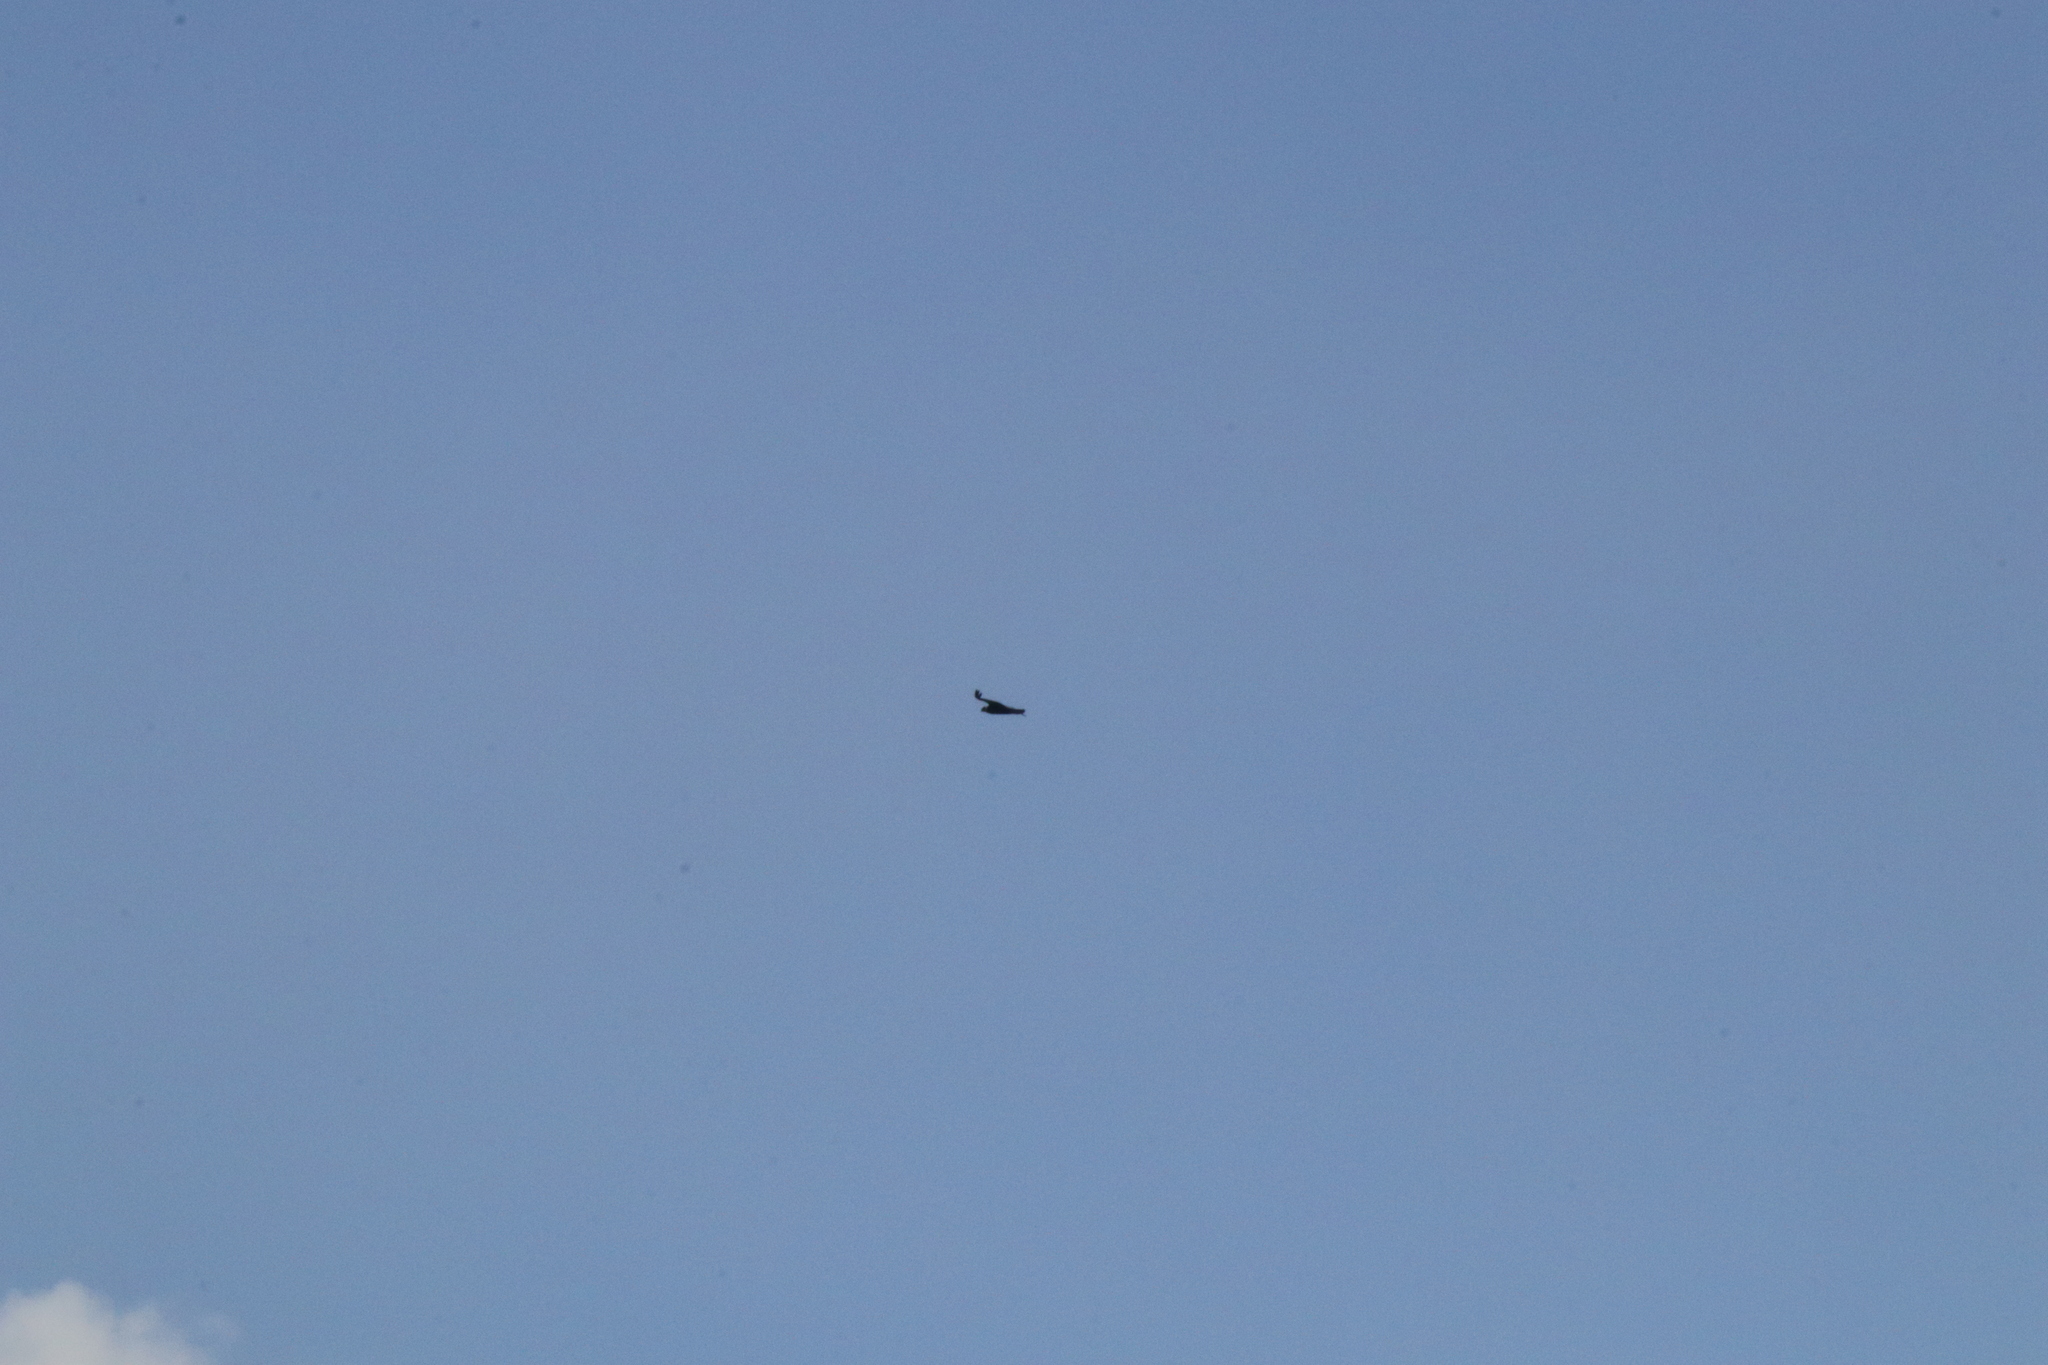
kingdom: Animalia
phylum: Chordata
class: Aves
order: Accipitriformes
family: Cathartidae
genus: Vultur
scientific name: Vultur gryphus
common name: Andean condor
